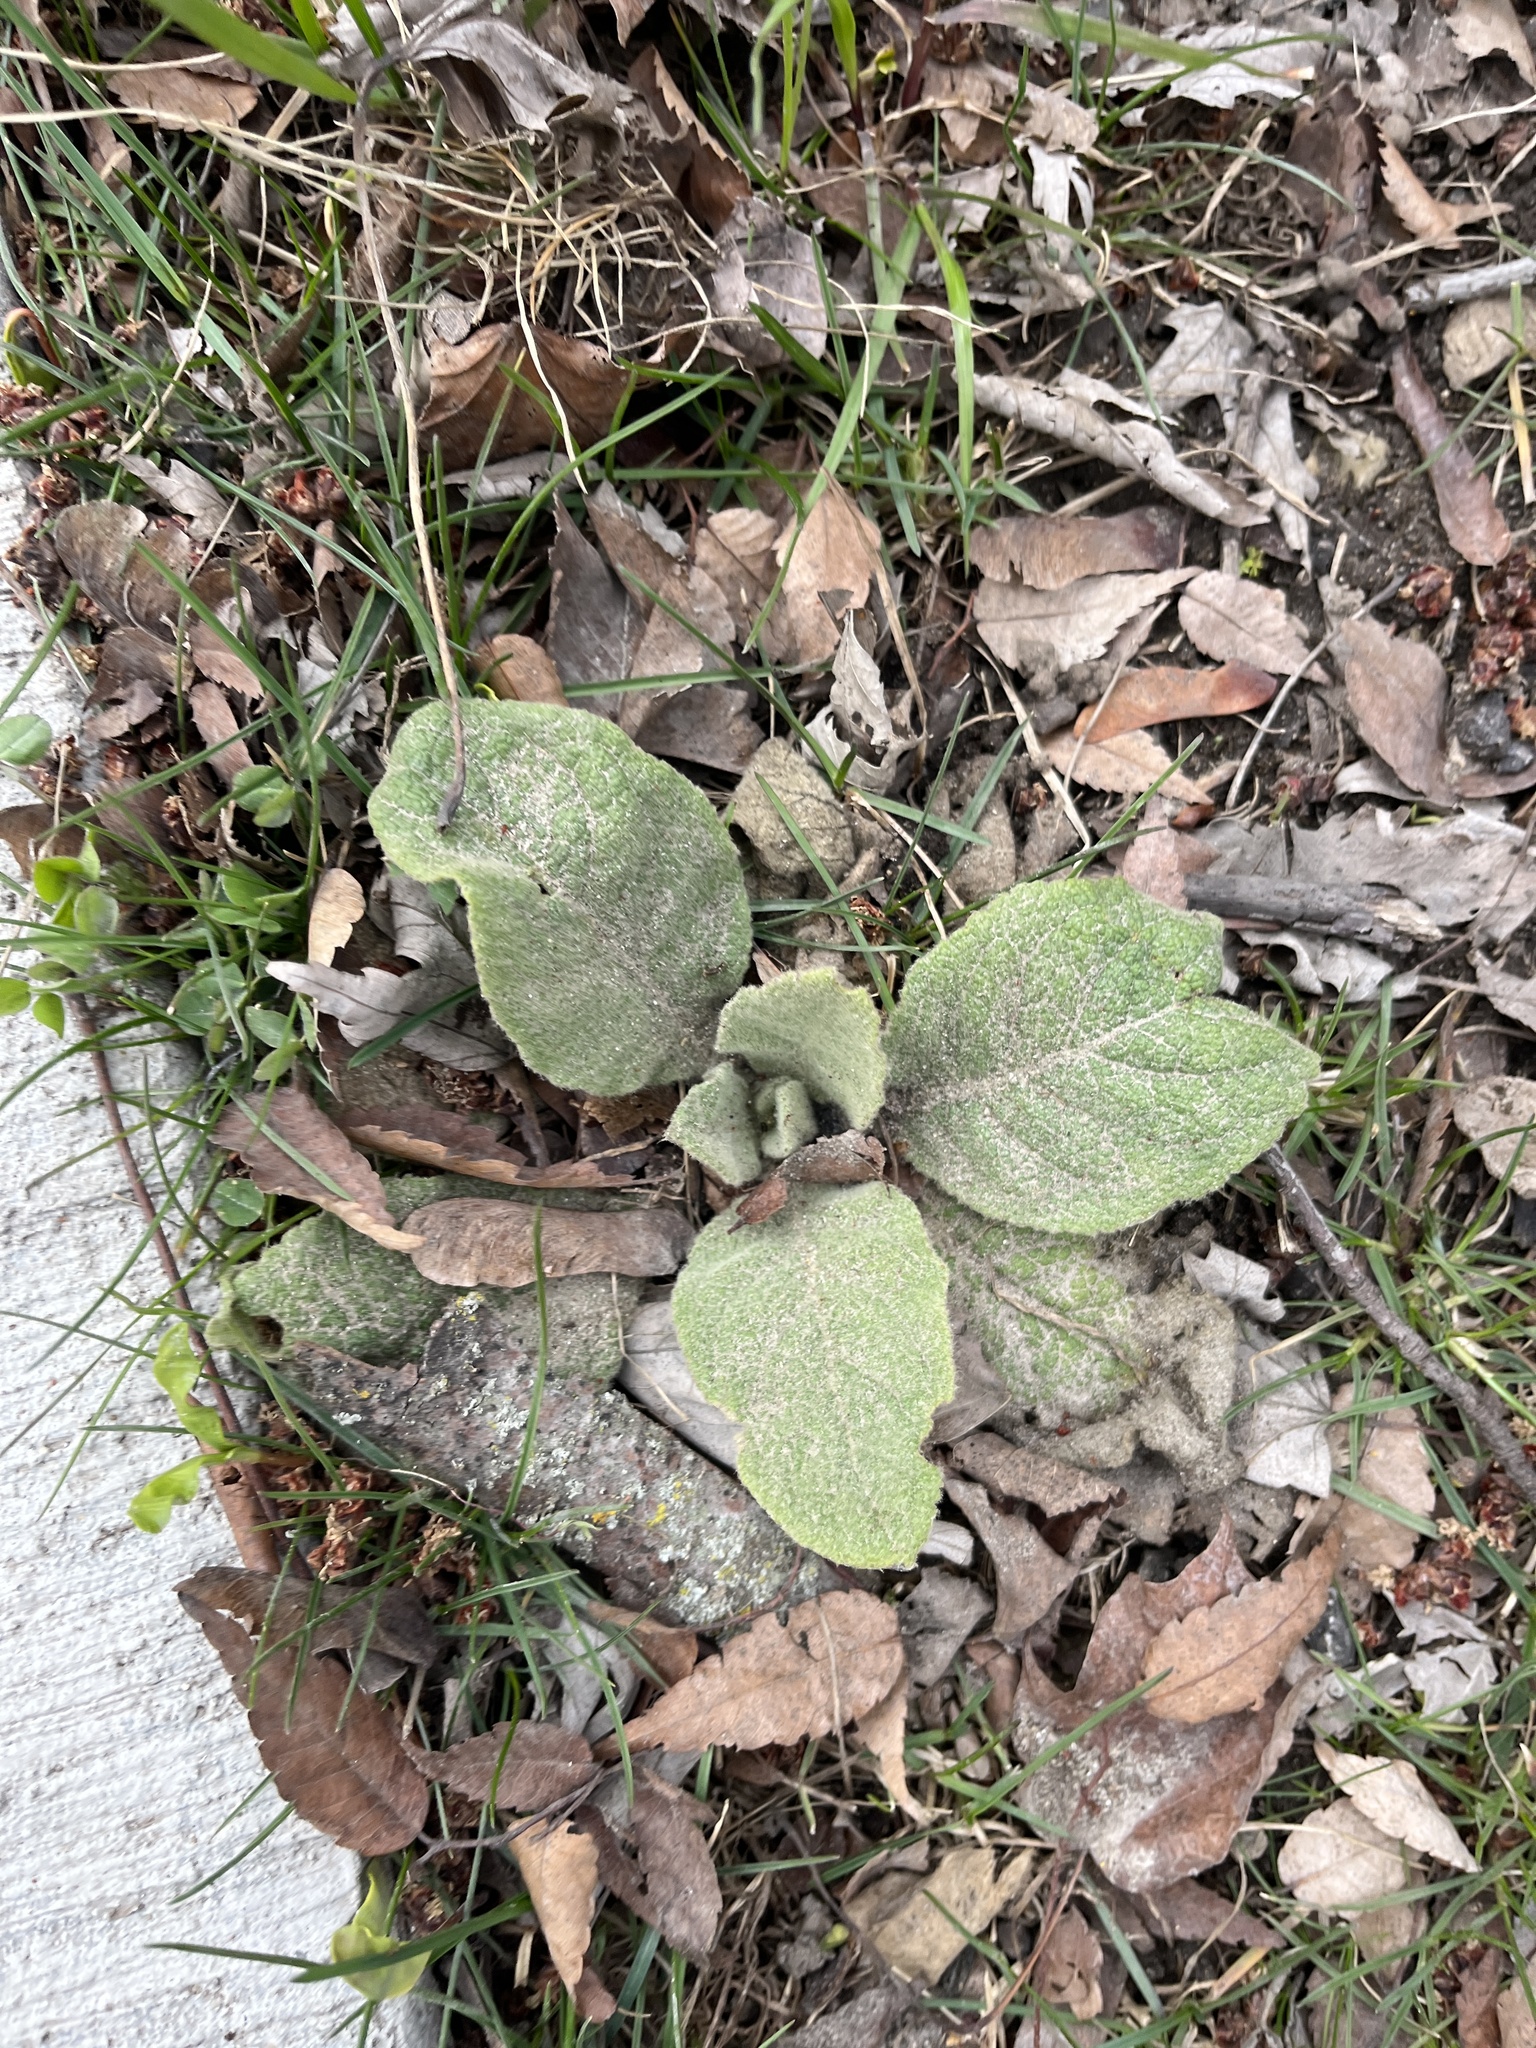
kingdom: Plantae
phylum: Tracheophyta
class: Magnoliopsida
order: Lamiales
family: Scrophulariaceae
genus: Verbascum
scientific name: Verbascum thapsus
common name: Common mullein
